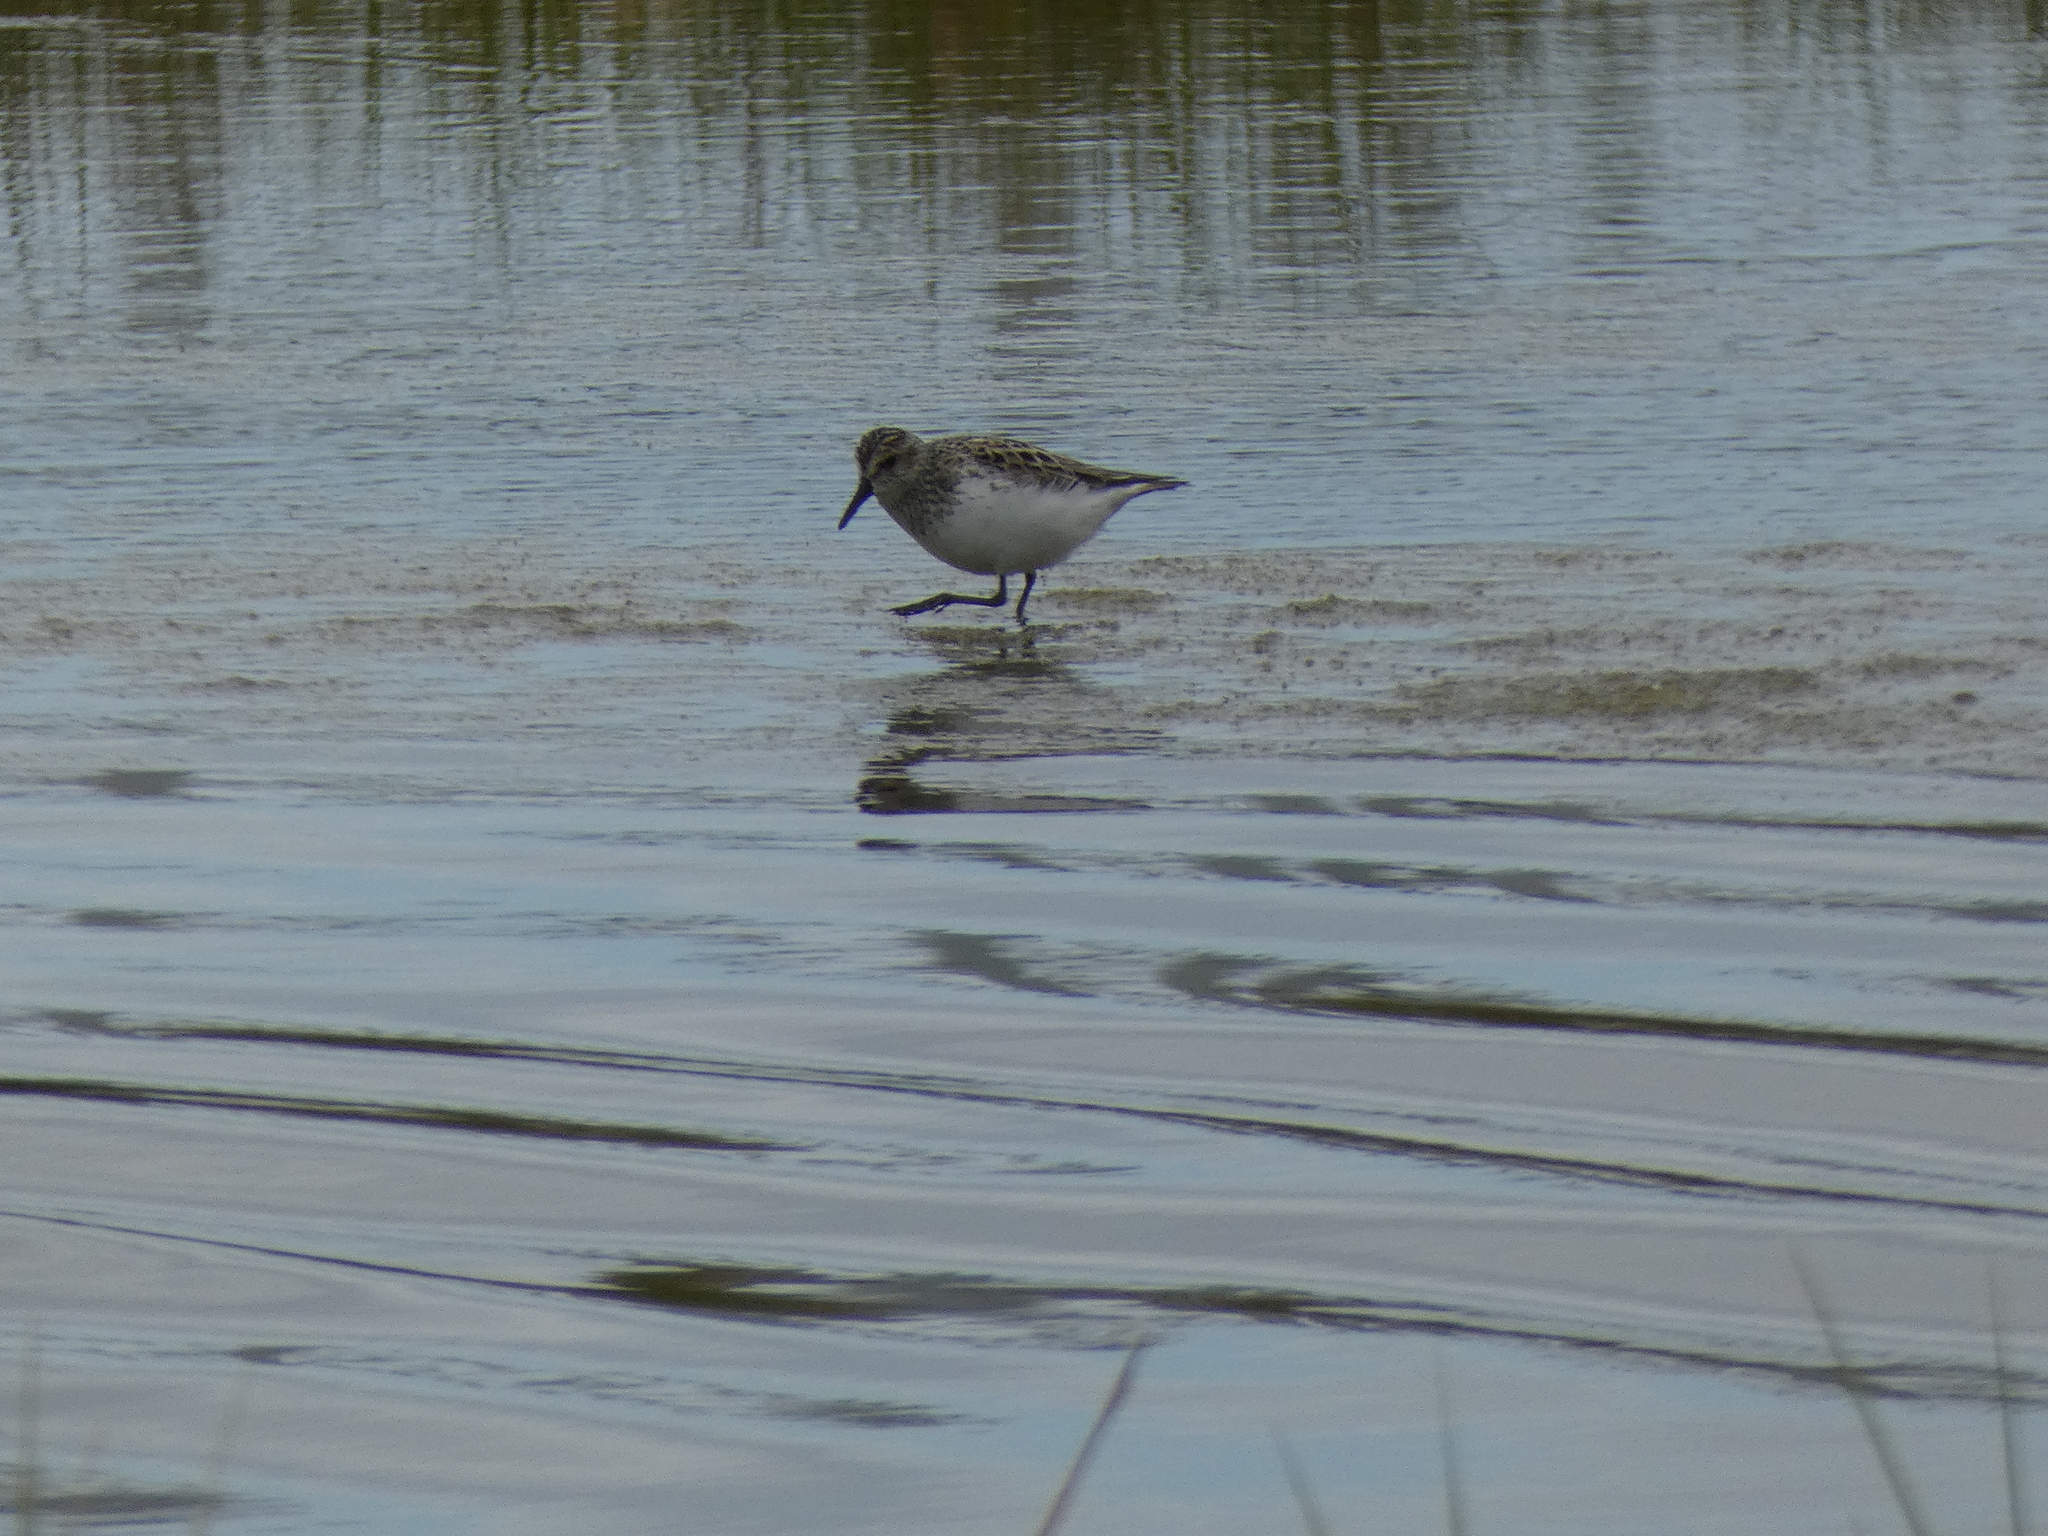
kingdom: Animalia
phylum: Chordata
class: Aves
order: Charadriiformes
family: Scolopacidae
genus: Calidris
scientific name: Calidris pusilla
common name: Semipalmated sandpiper
